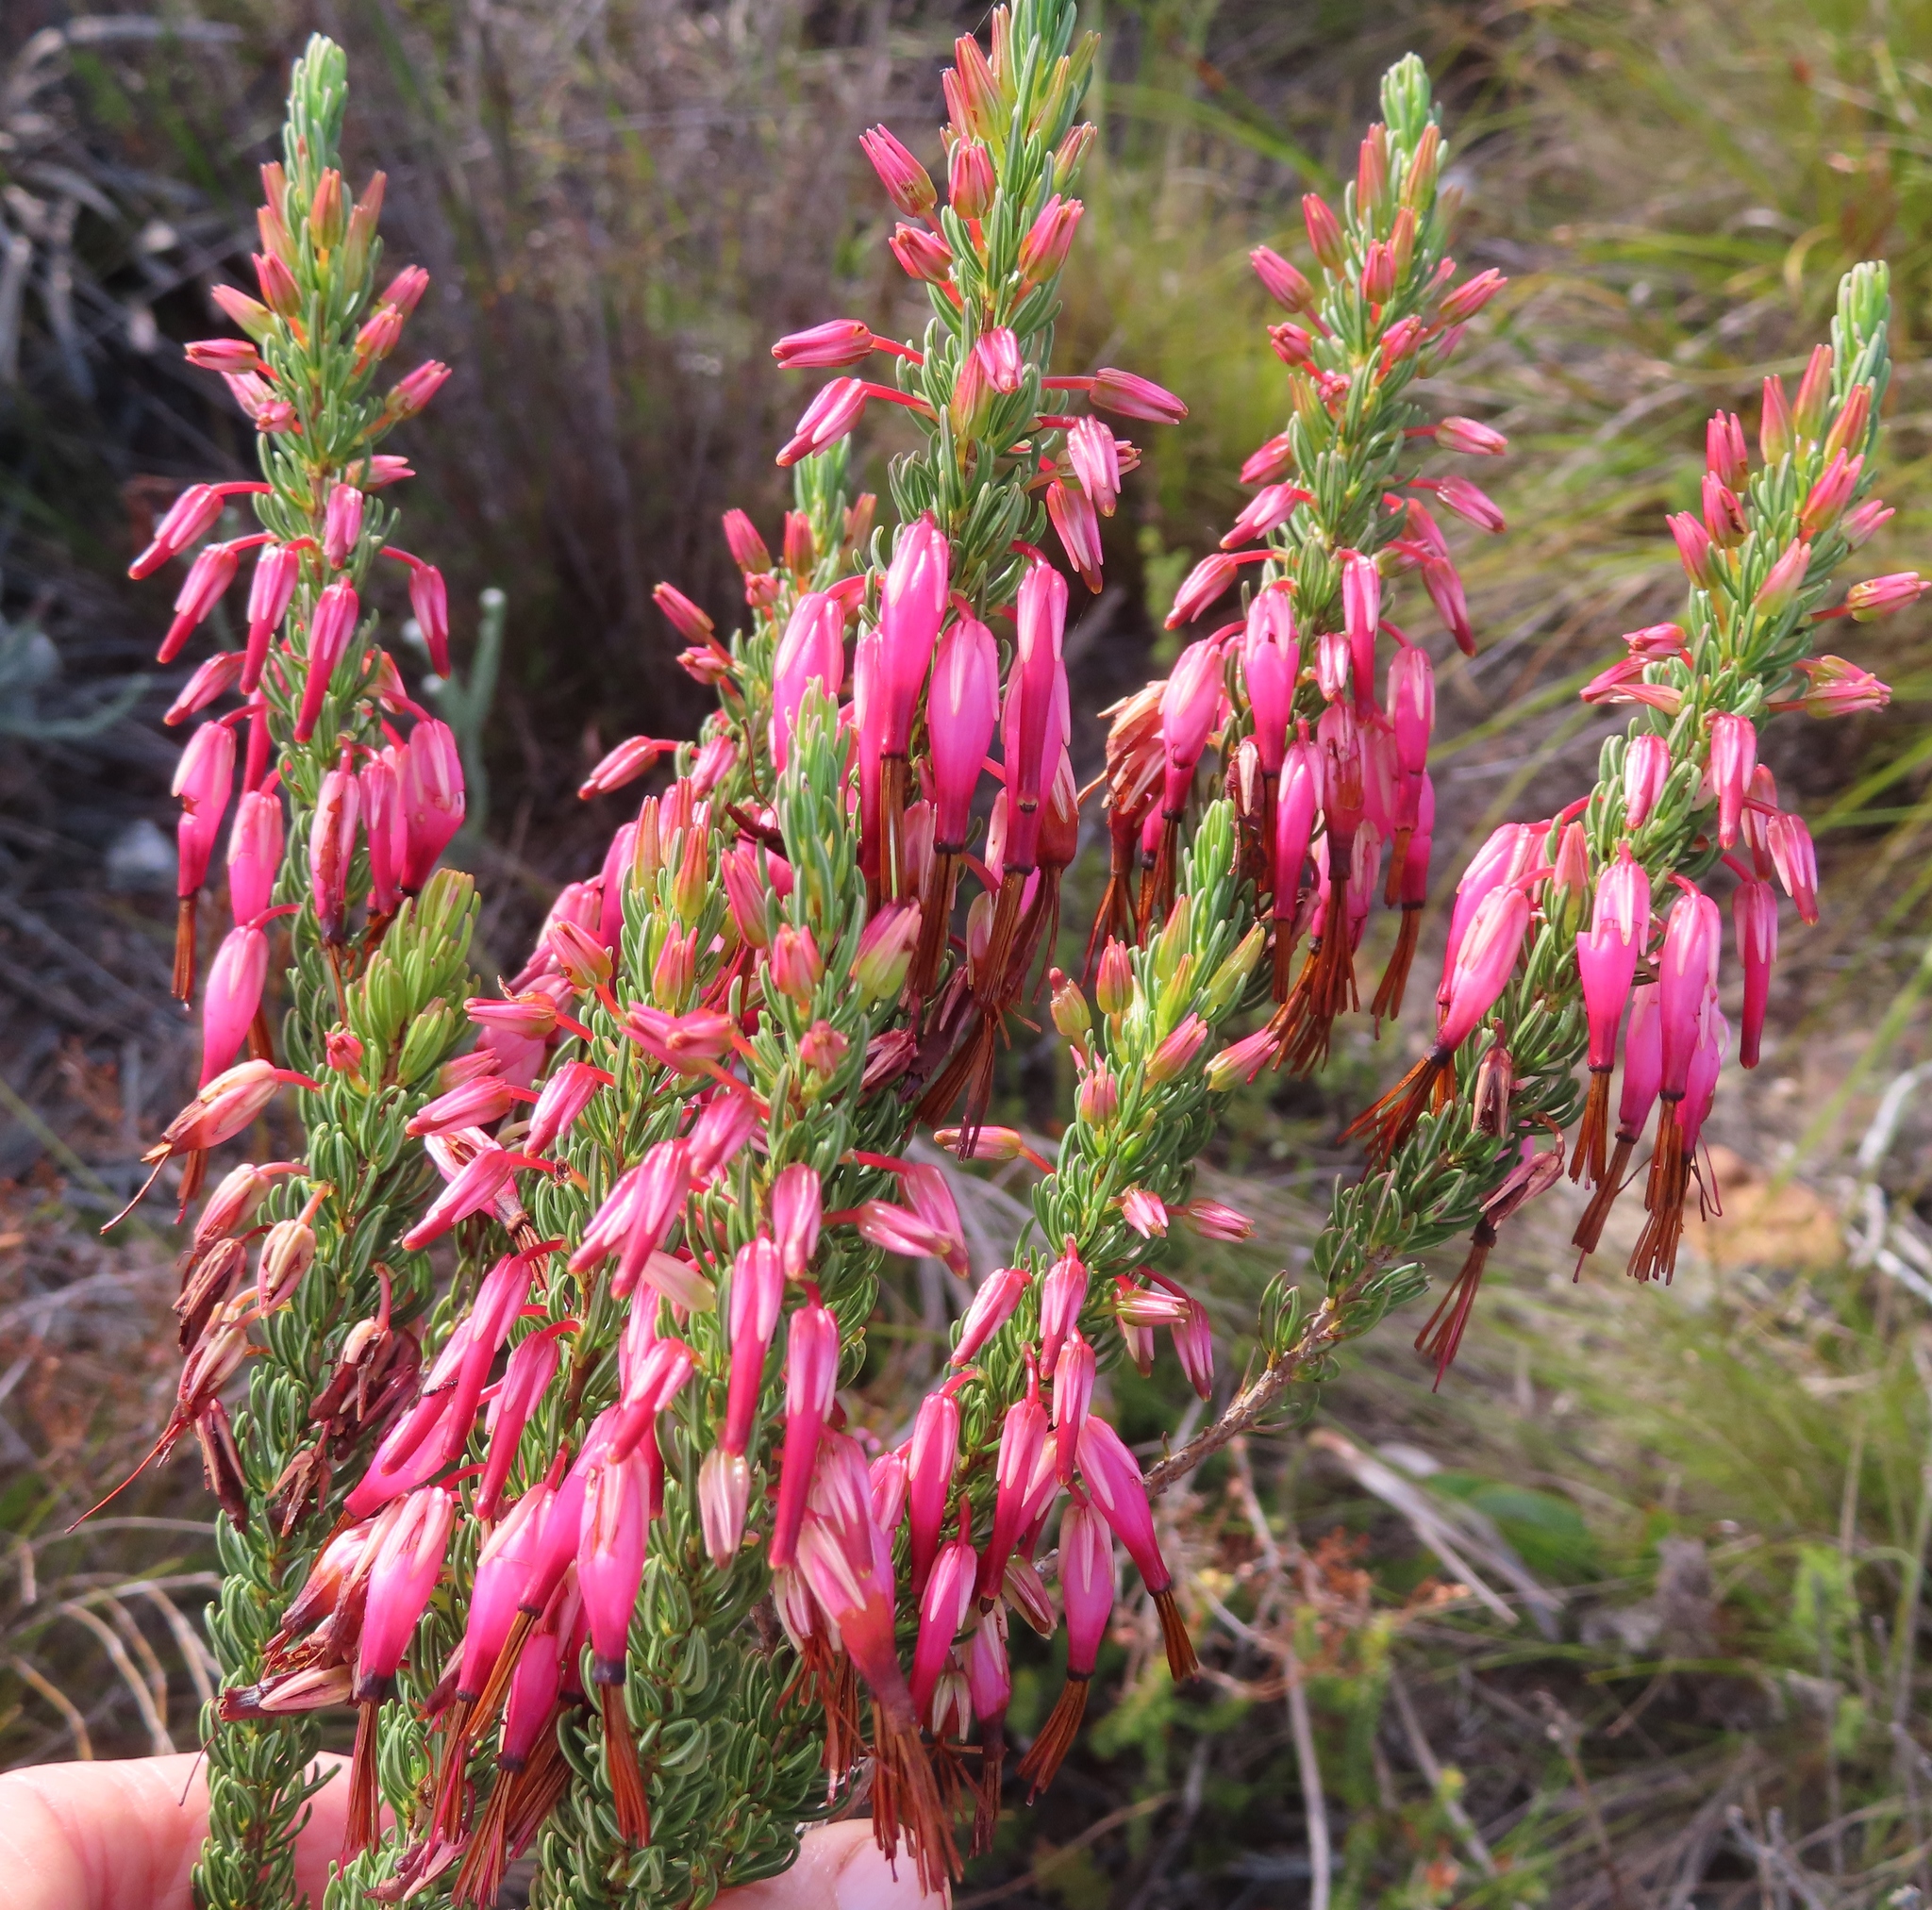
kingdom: Plantae
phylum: Tracheophyta
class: Magnoliopsida
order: Ericales
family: Ericaceae
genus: Erica
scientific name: Erica plukenetii
